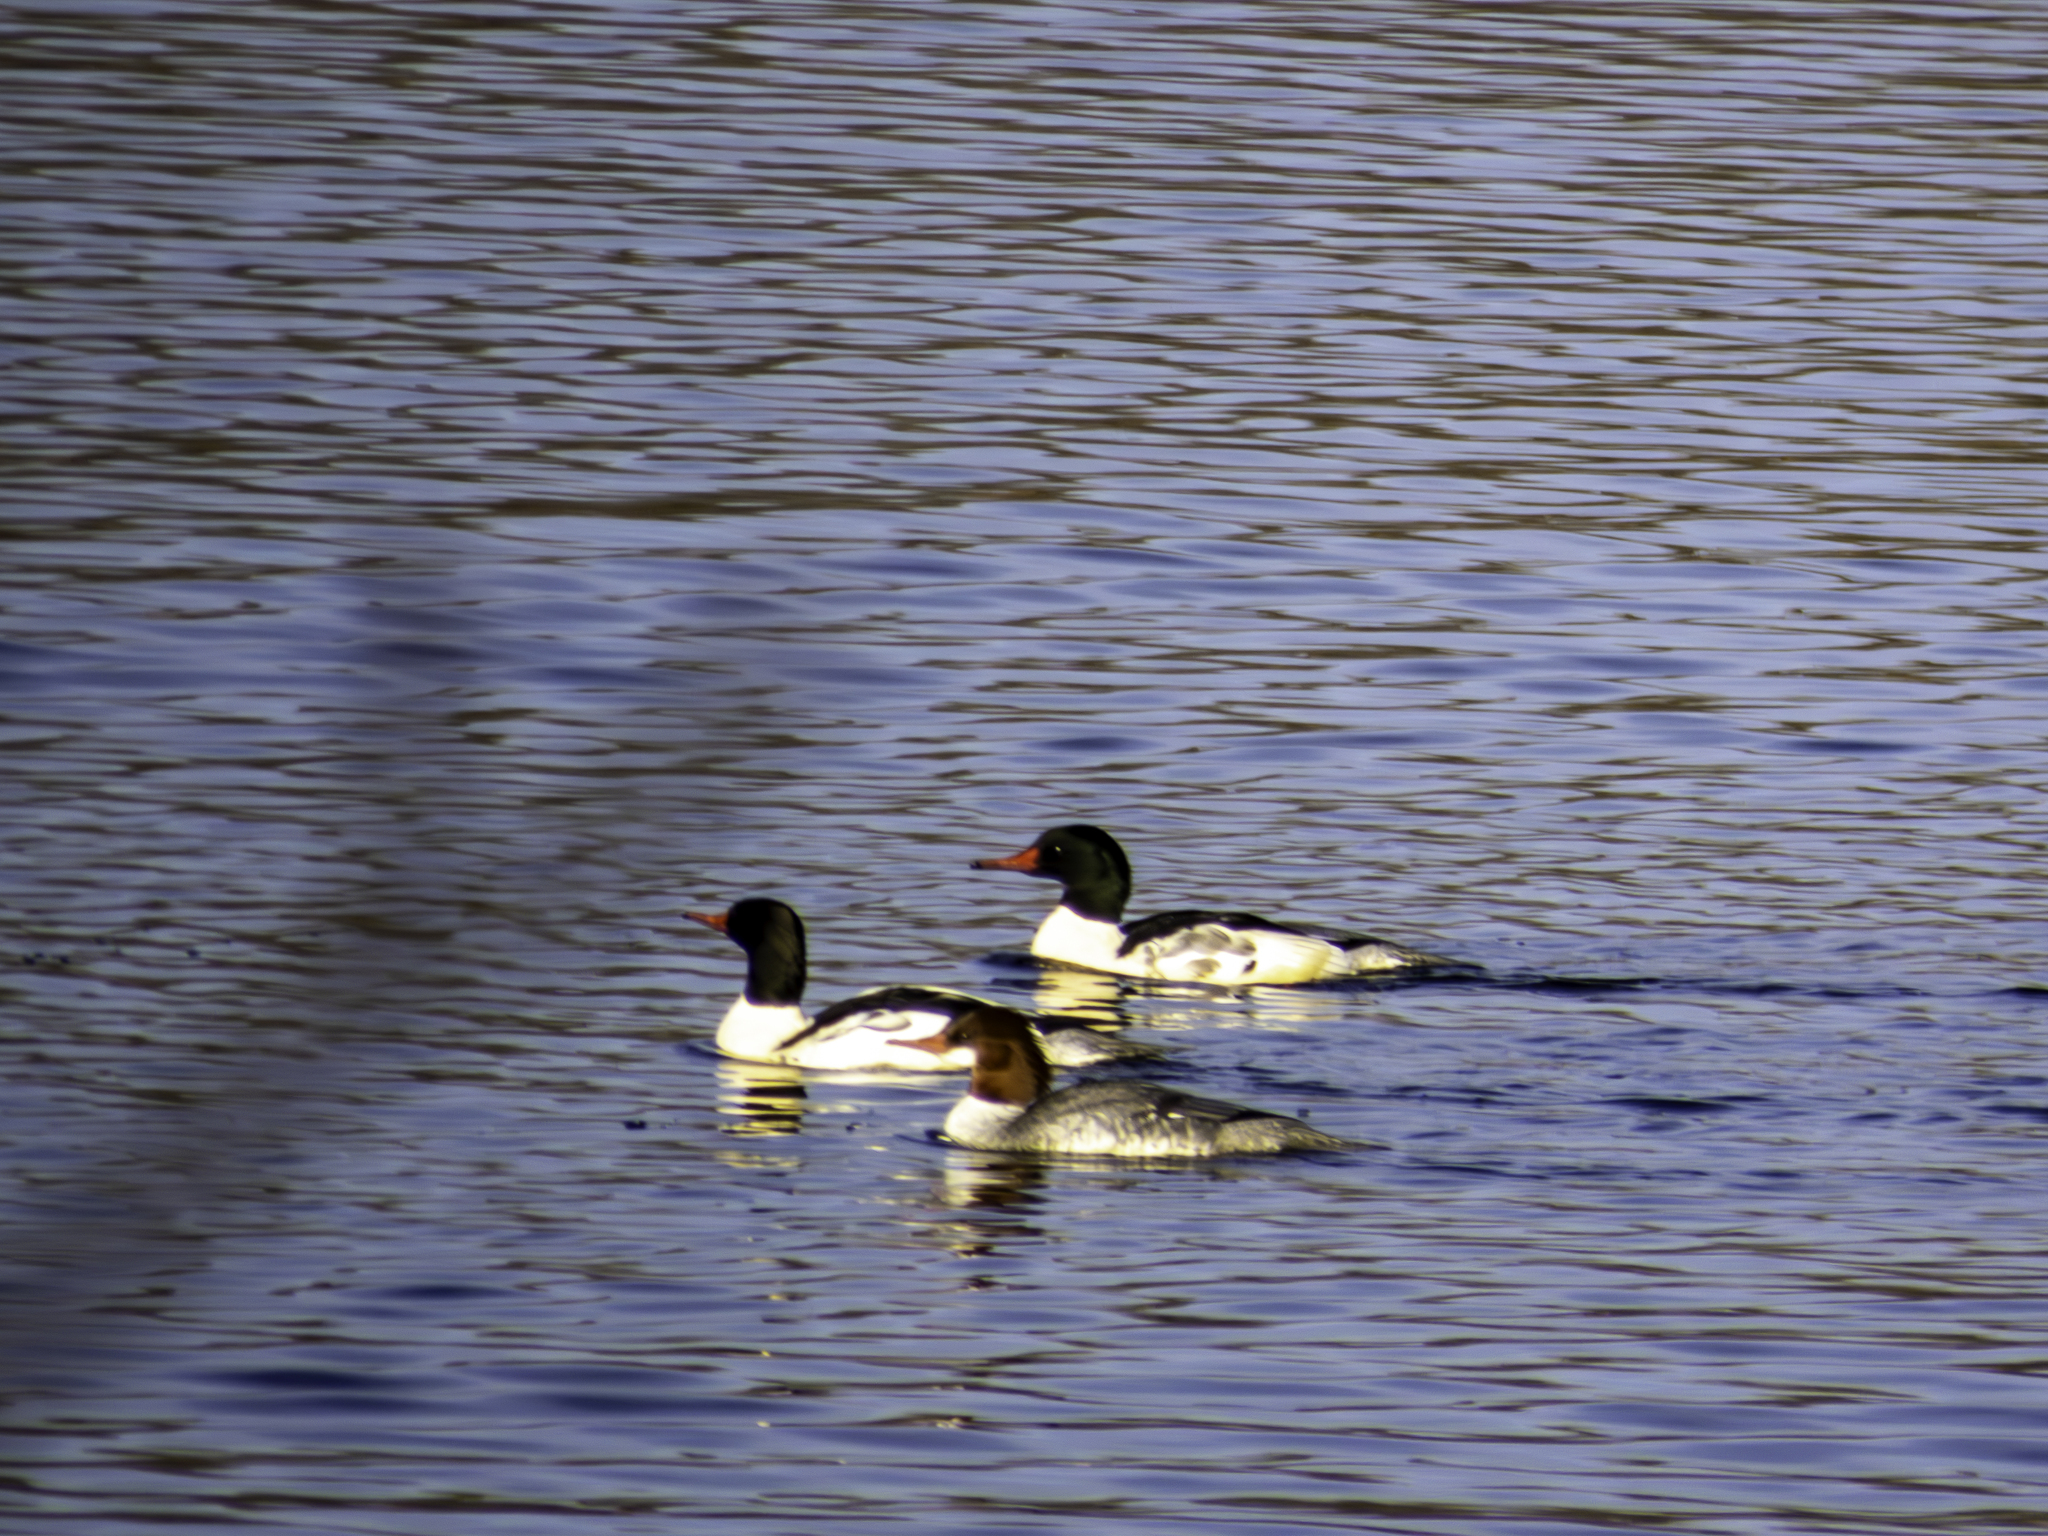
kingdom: Animalia
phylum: Chordata
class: Aves
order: Anseriformes
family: Anatidae
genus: Mergus
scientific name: Mergus merganser
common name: Common merganser
